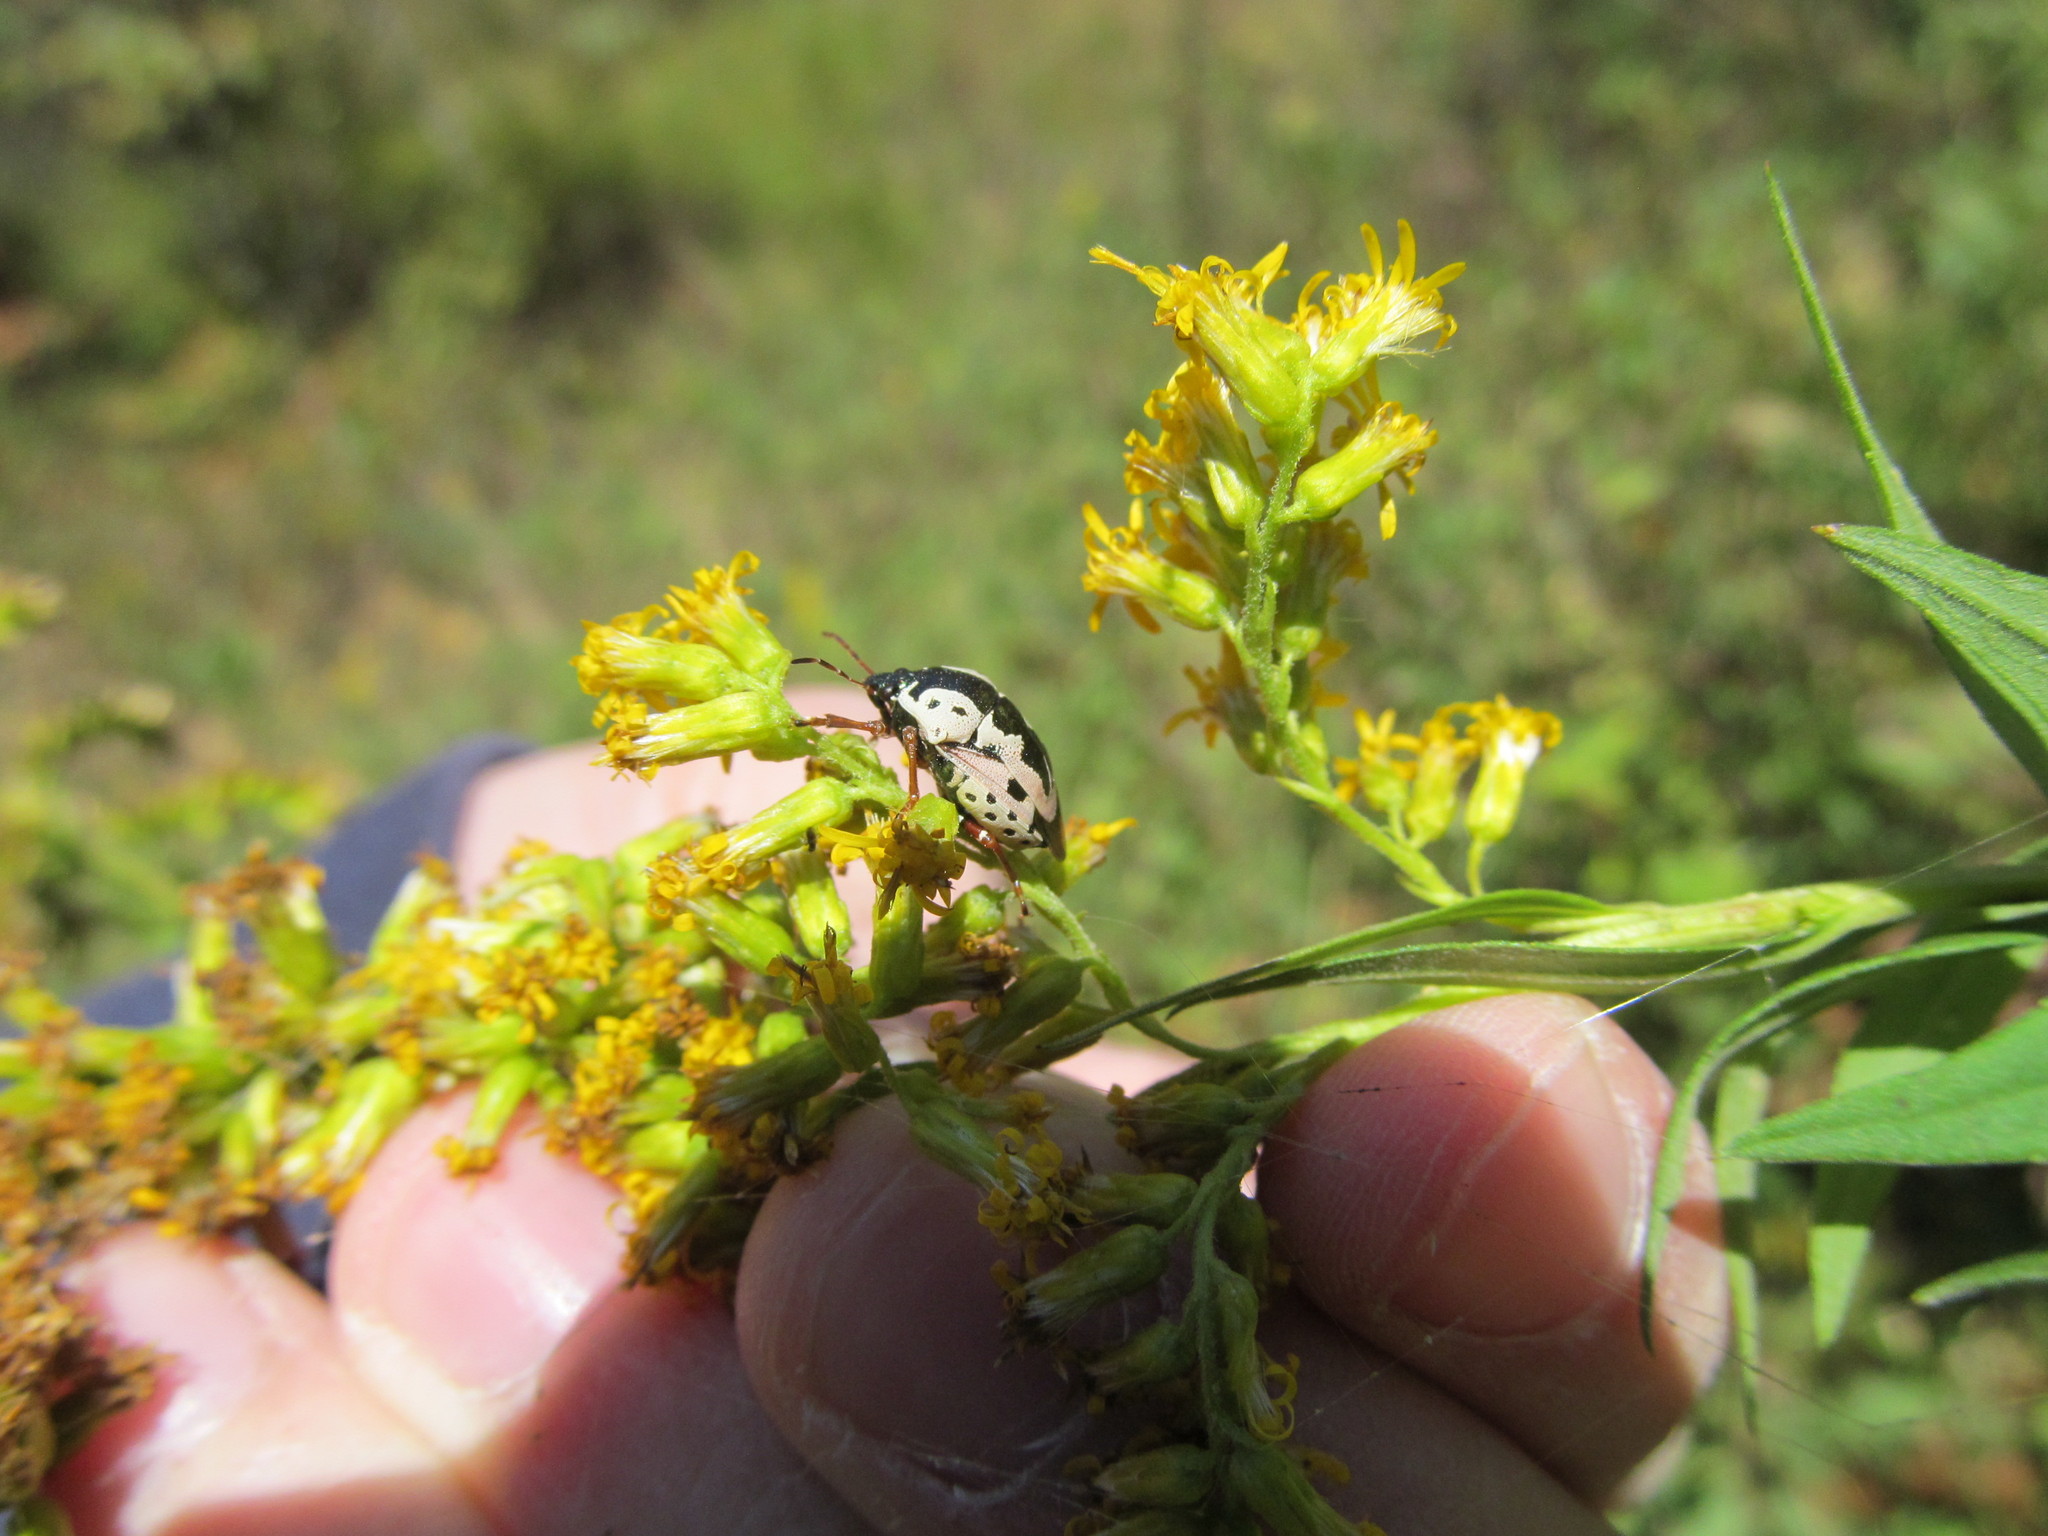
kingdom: Animalia
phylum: Arthropoda
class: Insecta
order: Hemiptera
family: Pentatomidae
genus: Stiretrus
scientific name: Stiretrus anchorago
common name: Anchor stink bug
